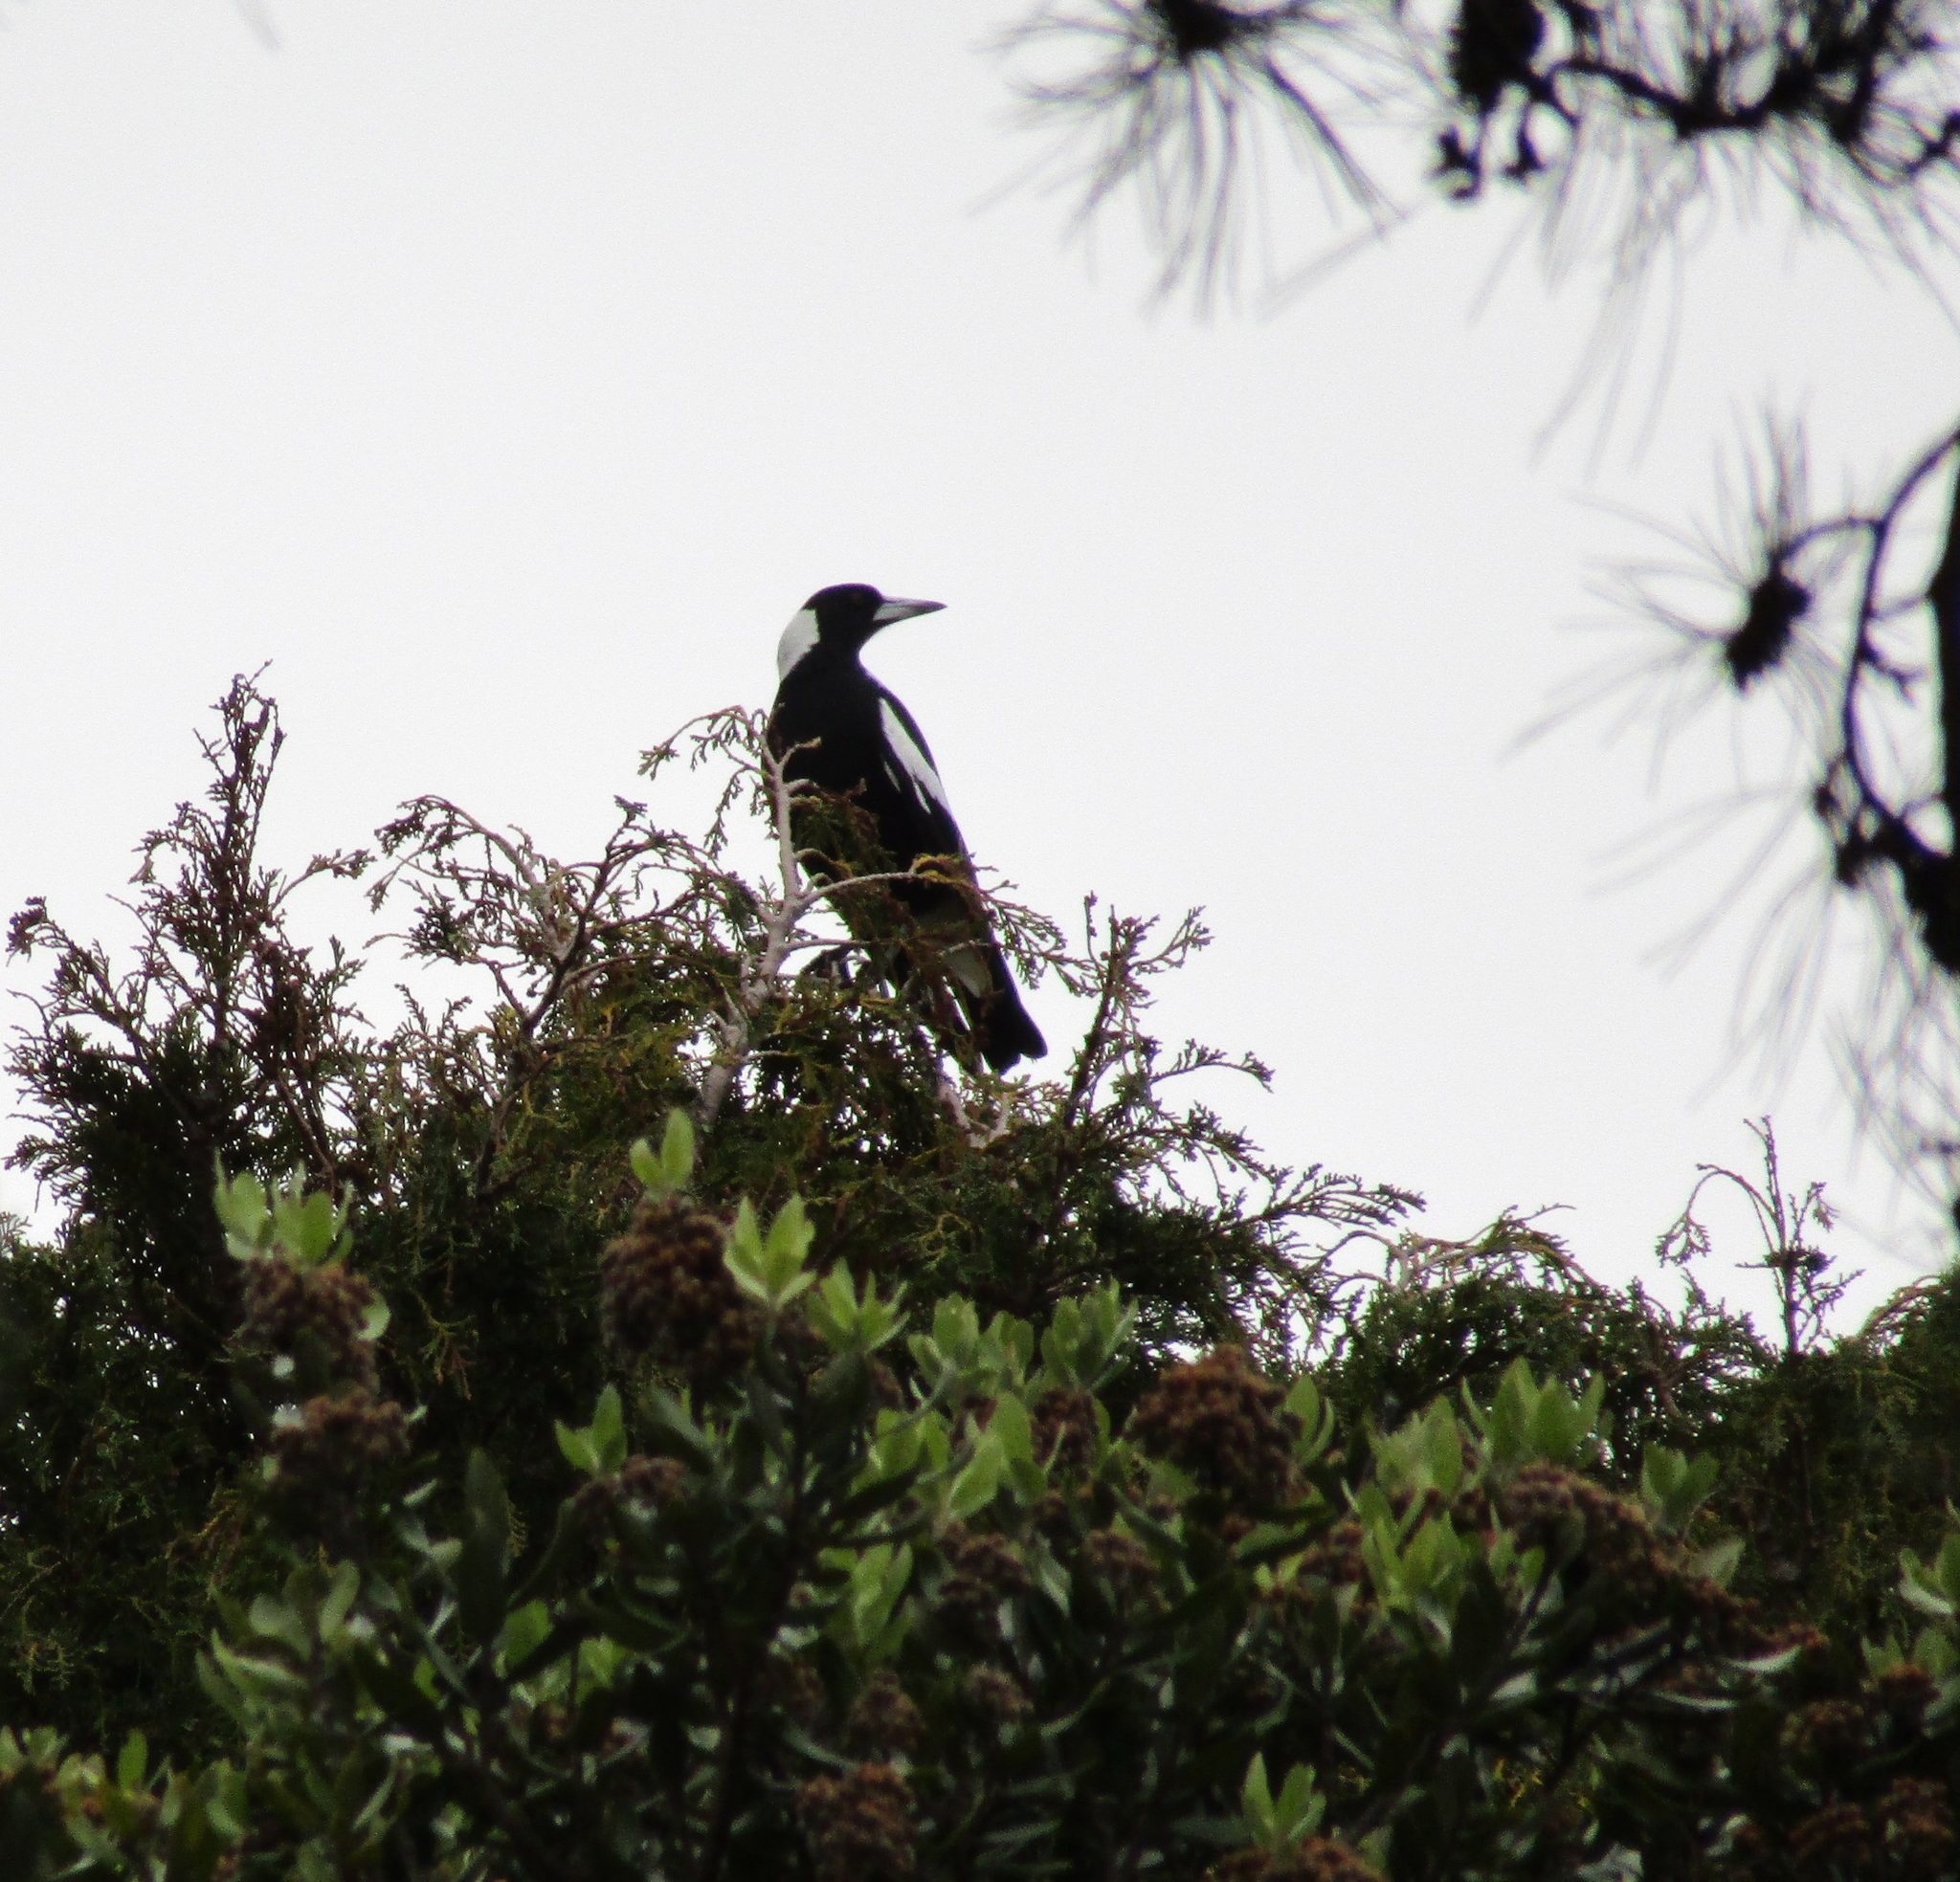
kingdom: Animalia
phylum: Chordata
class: Aves
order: Passeriformes
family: Cracticidae
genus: Gymnorhina
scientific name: Gymnorhina tibicen
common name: Australian magpie
